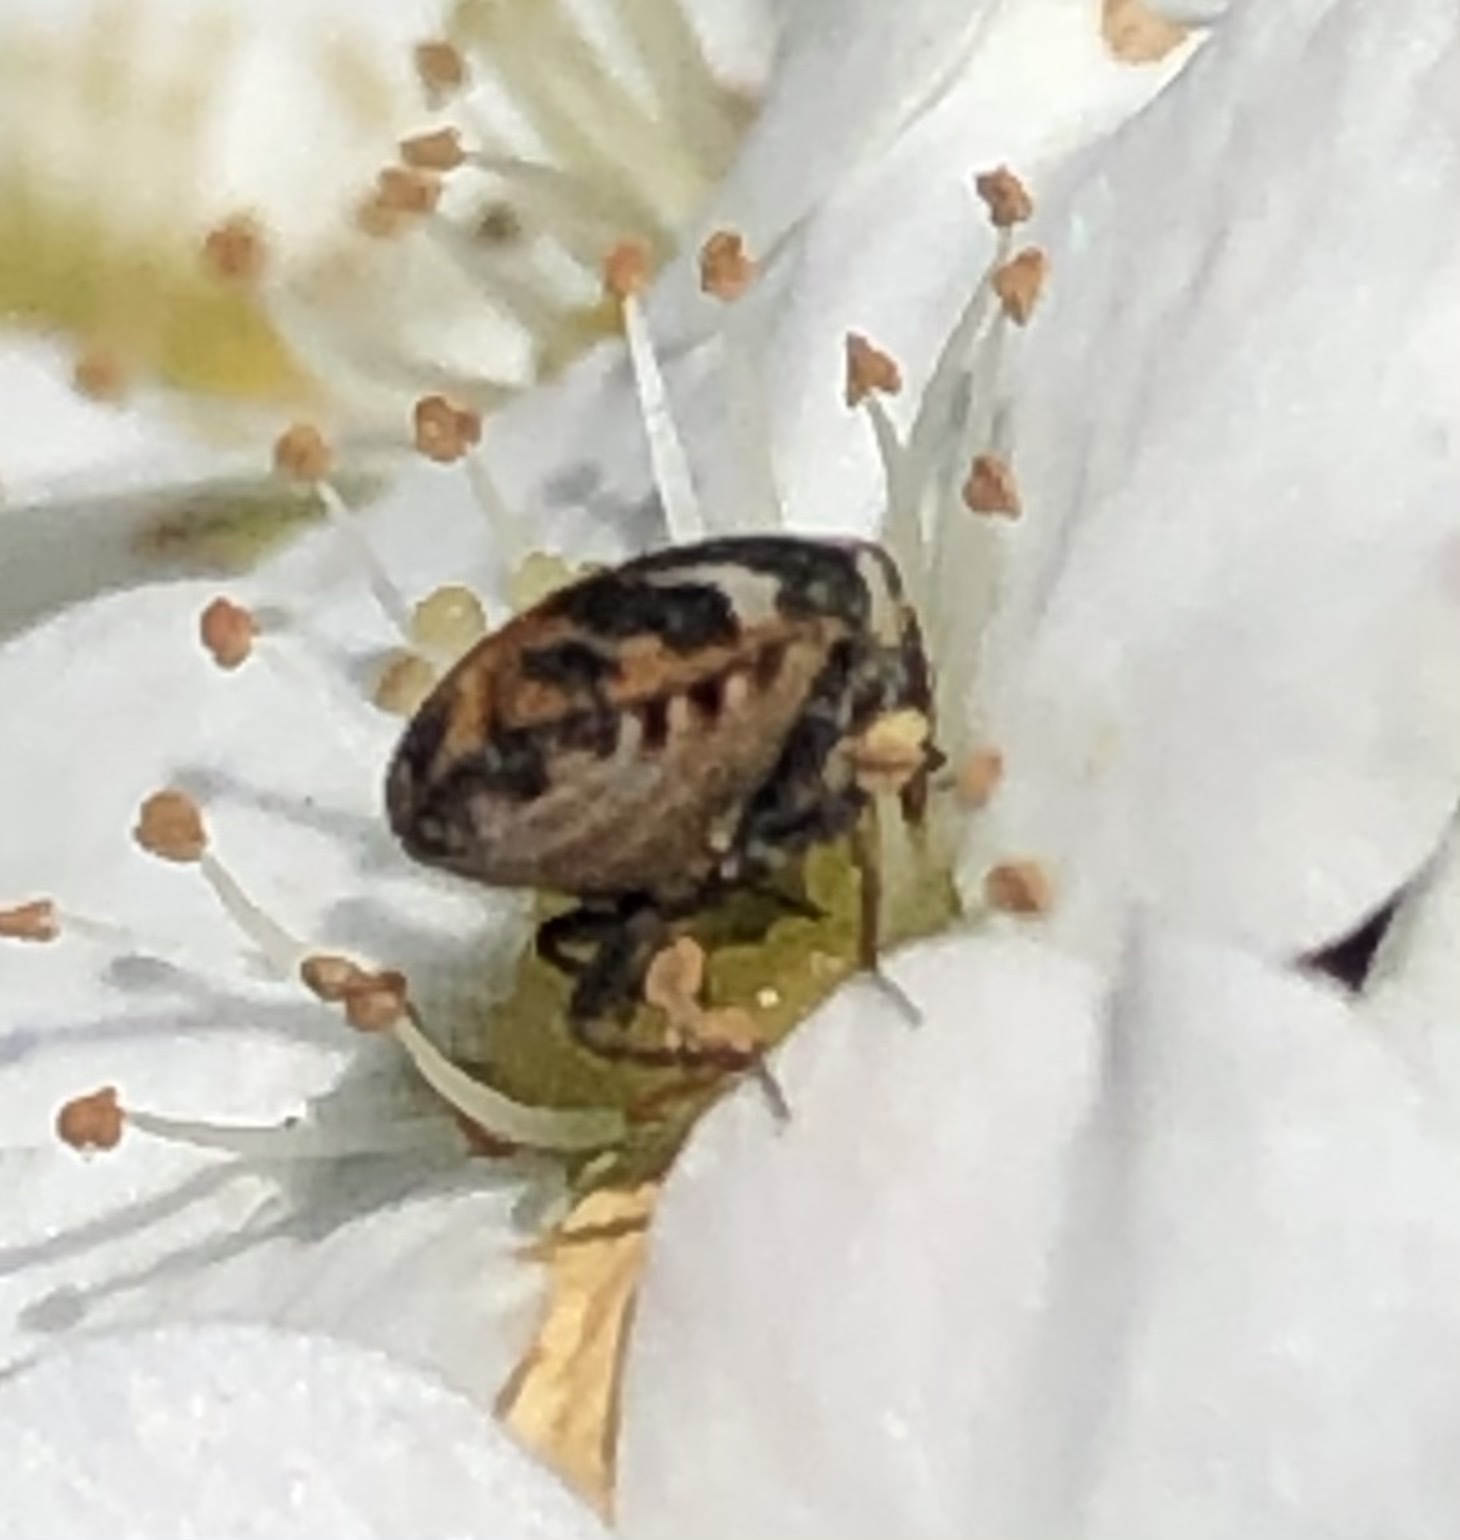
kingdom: Animalia
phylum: Arthropoda
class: Insecta
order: Coleoptera
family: Dermestidae
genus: Anthrenus
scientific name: Anthrenus scrophulariae
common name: Buffalo carpet beetle
